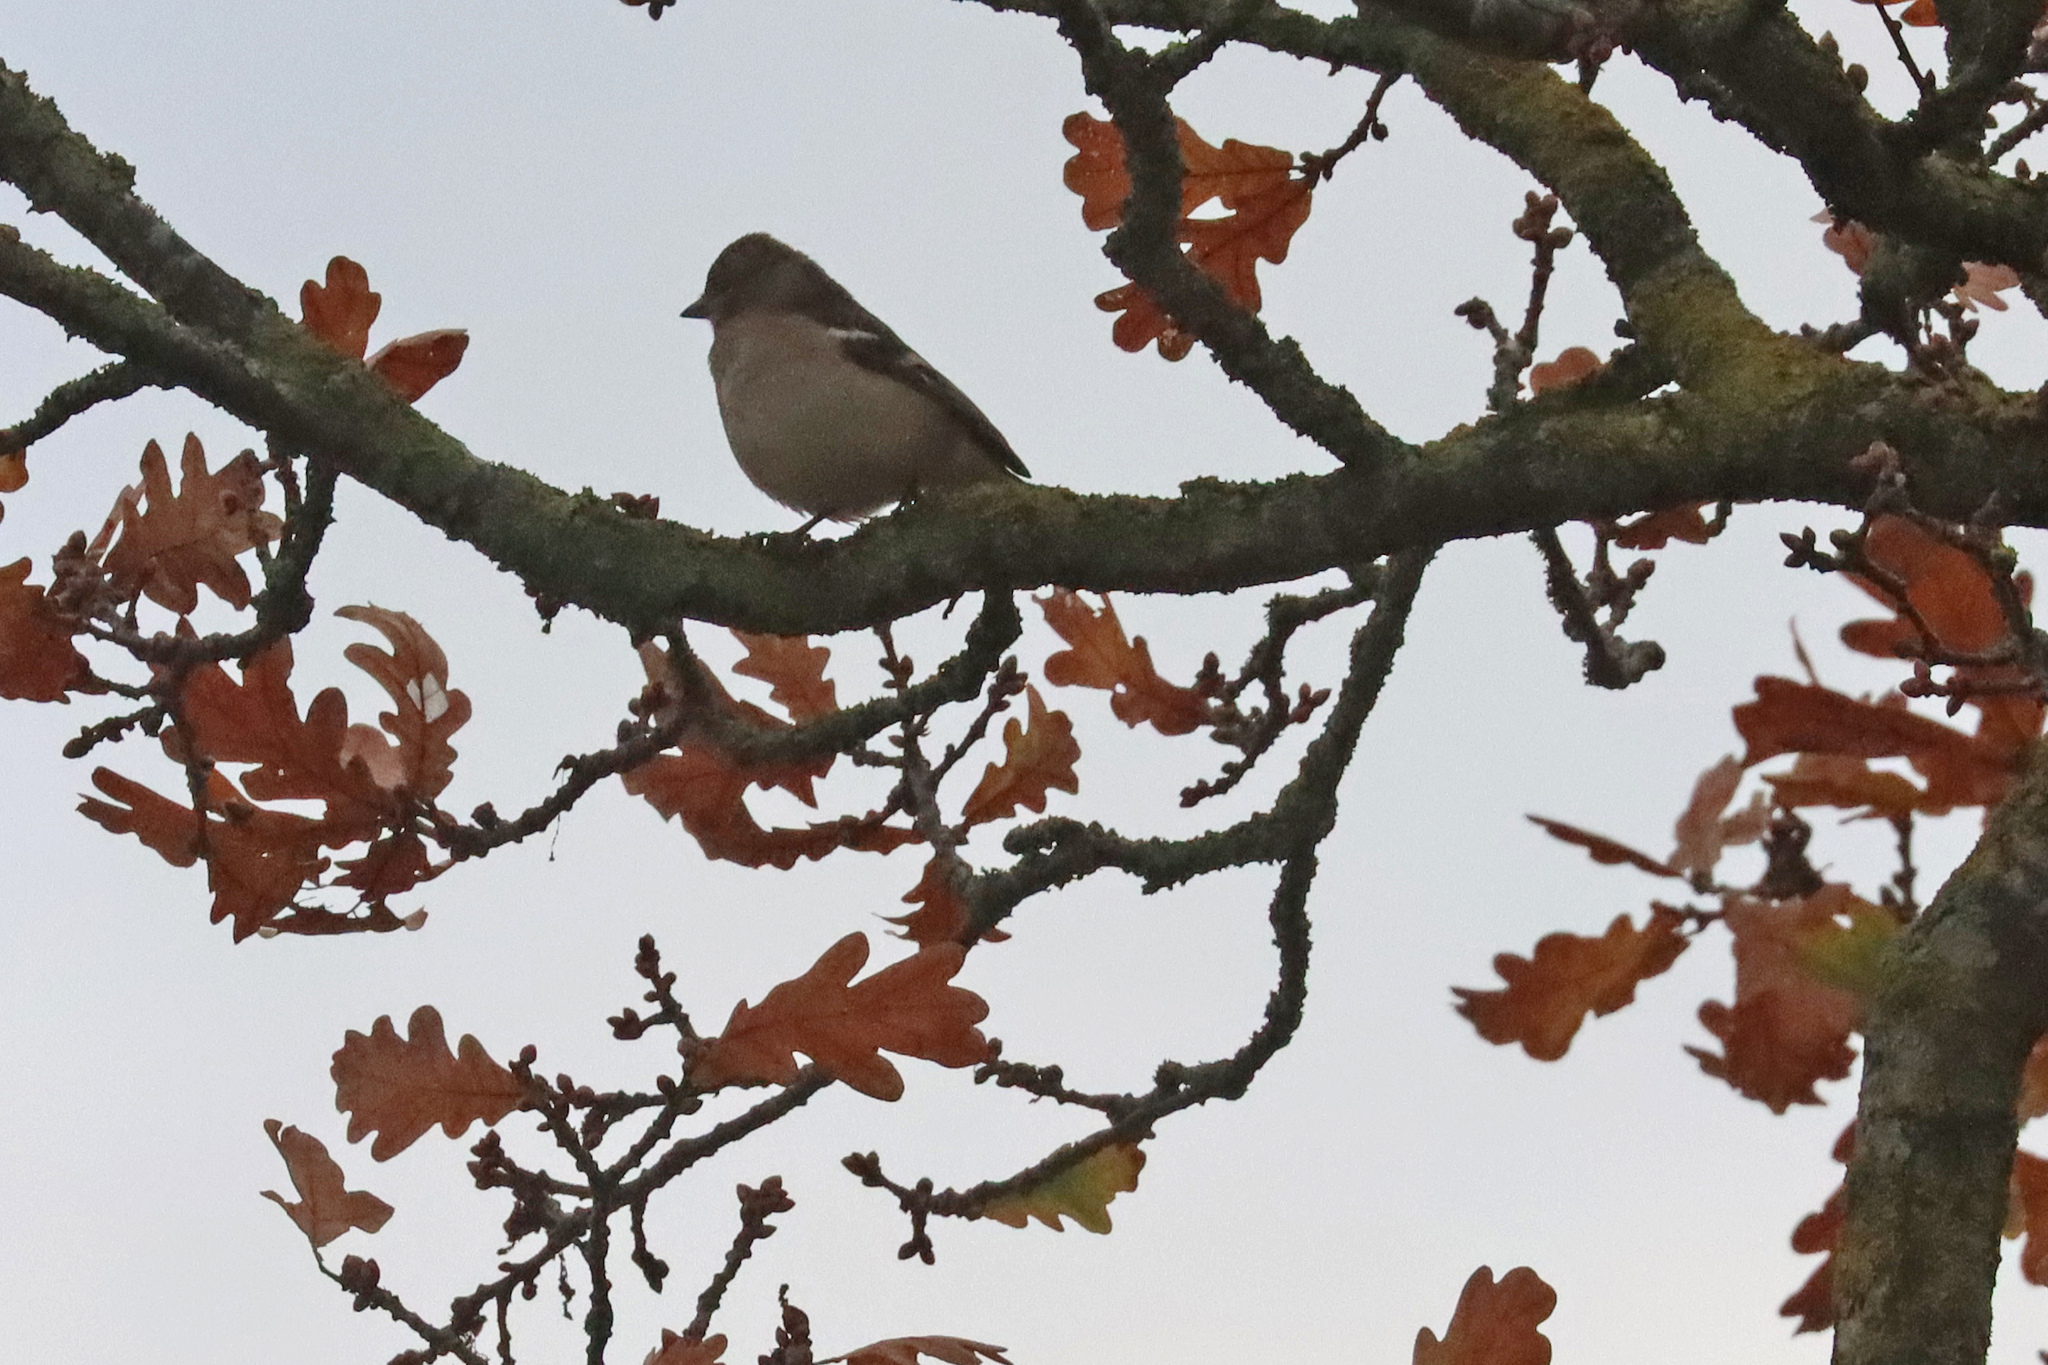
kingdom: Animalia
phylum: Chordata
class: Aves
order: Passeriformes
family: Fringillidae
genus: Fringilla
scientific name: Fringilla coelebs
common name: Common chaffinch
